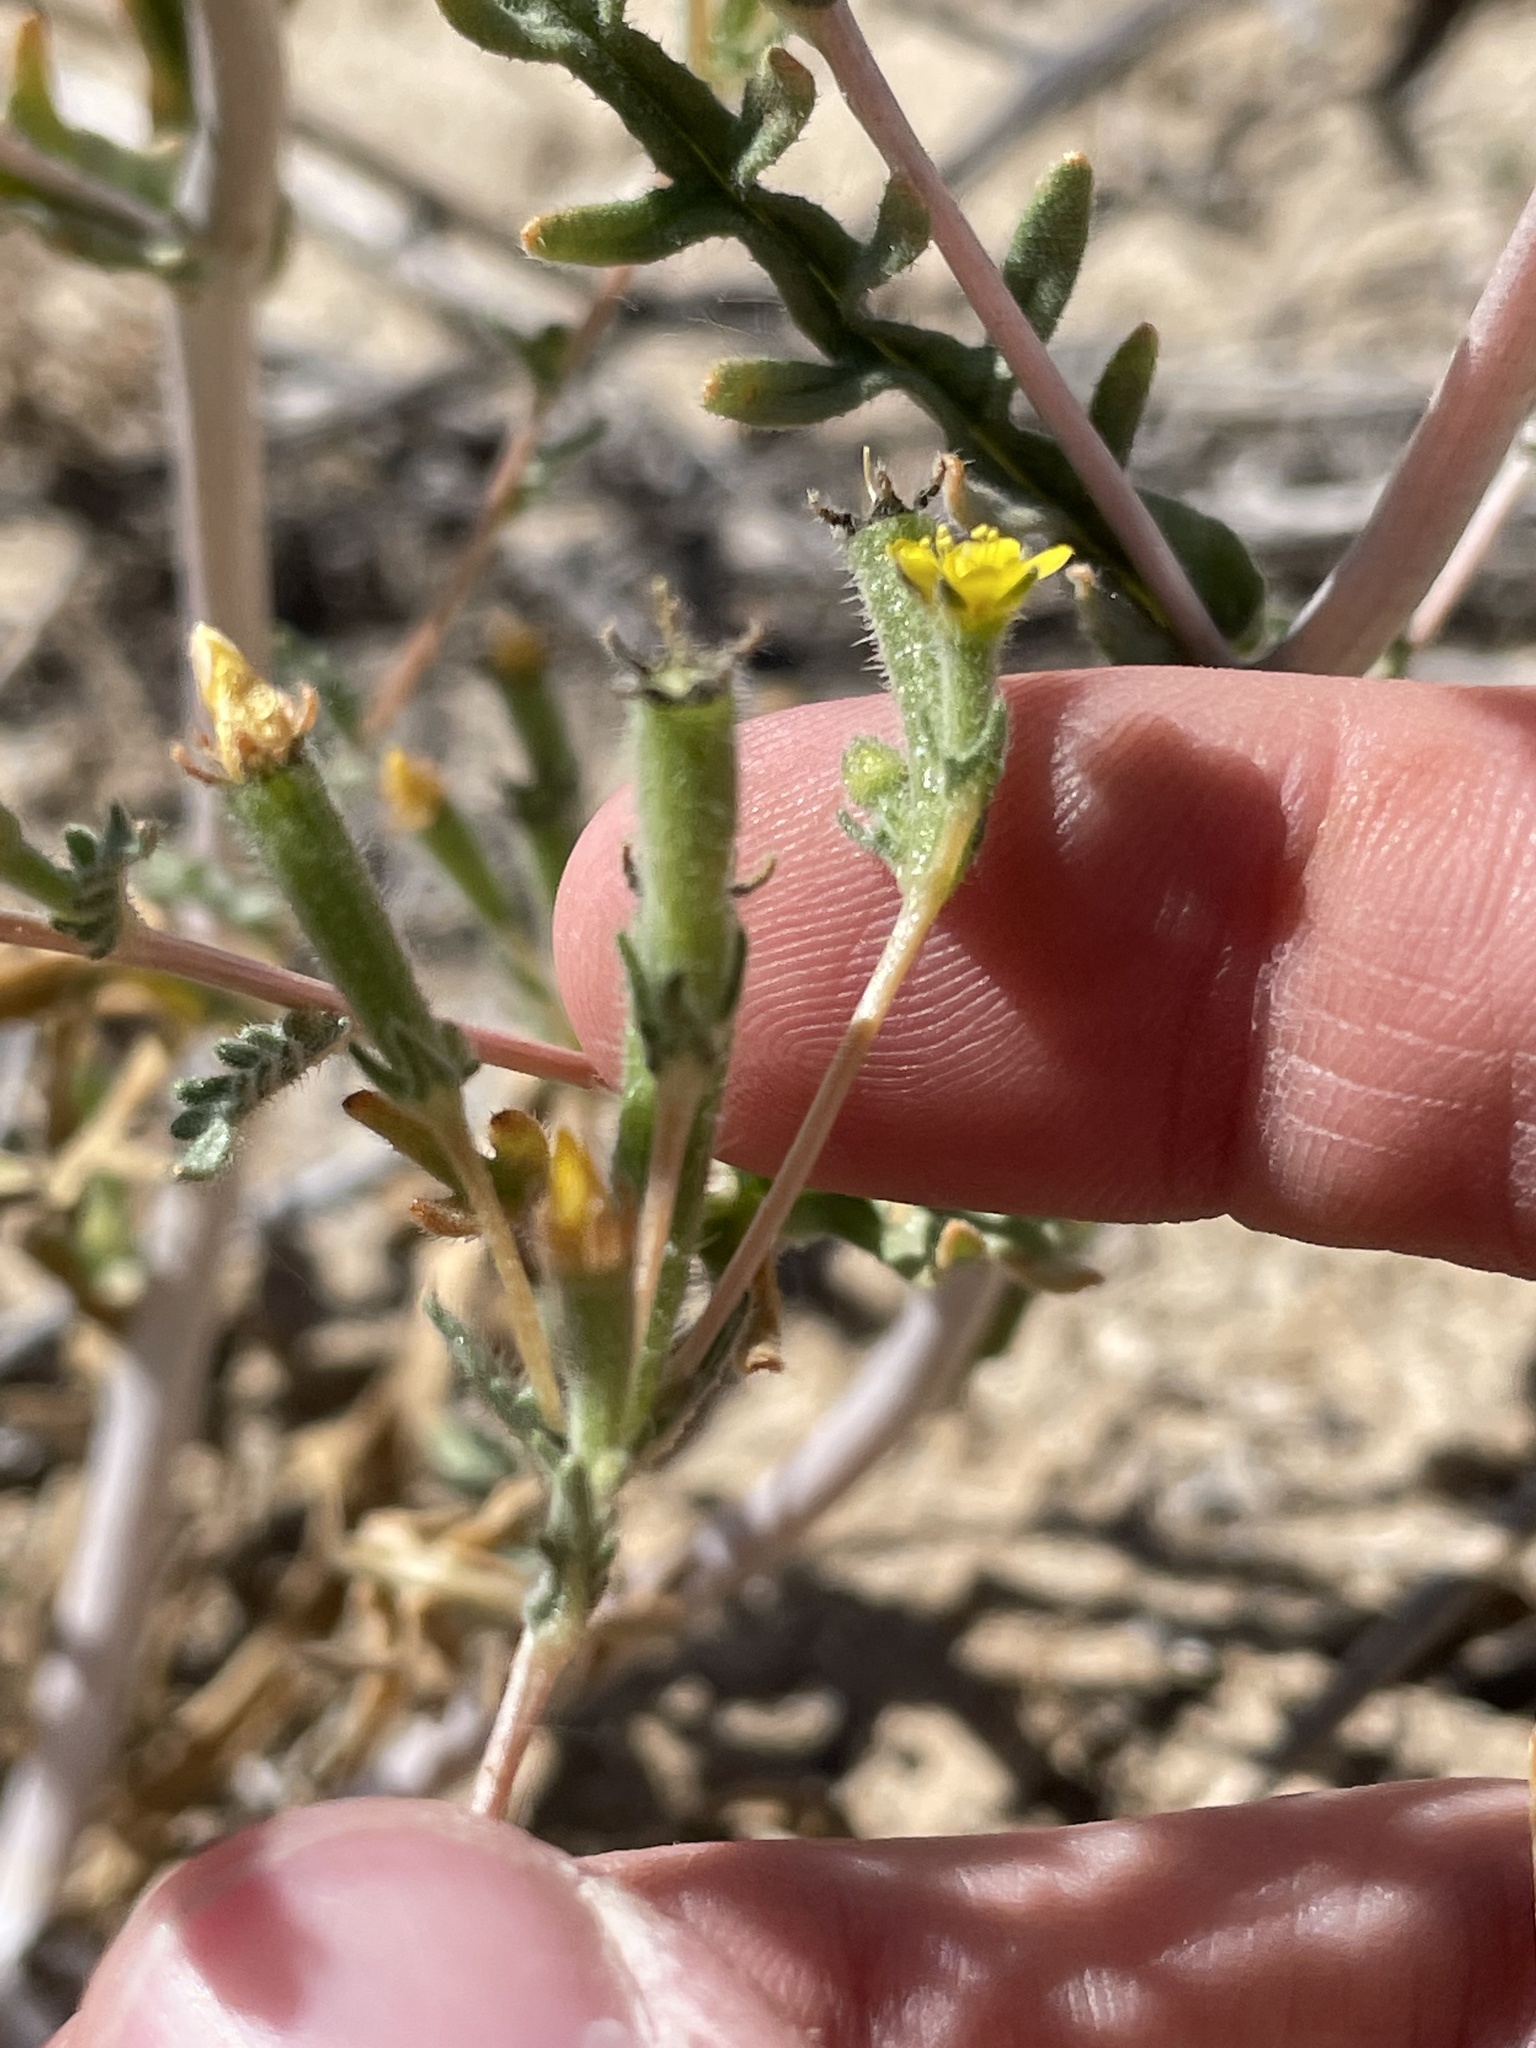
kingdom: Plantae
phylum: Tracheophyta
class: Magnoliopsida
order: Cornales
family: Loasaceae
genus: Mentzelia
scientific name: Mentzelia albicaulis
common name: White-stem blazingstar
